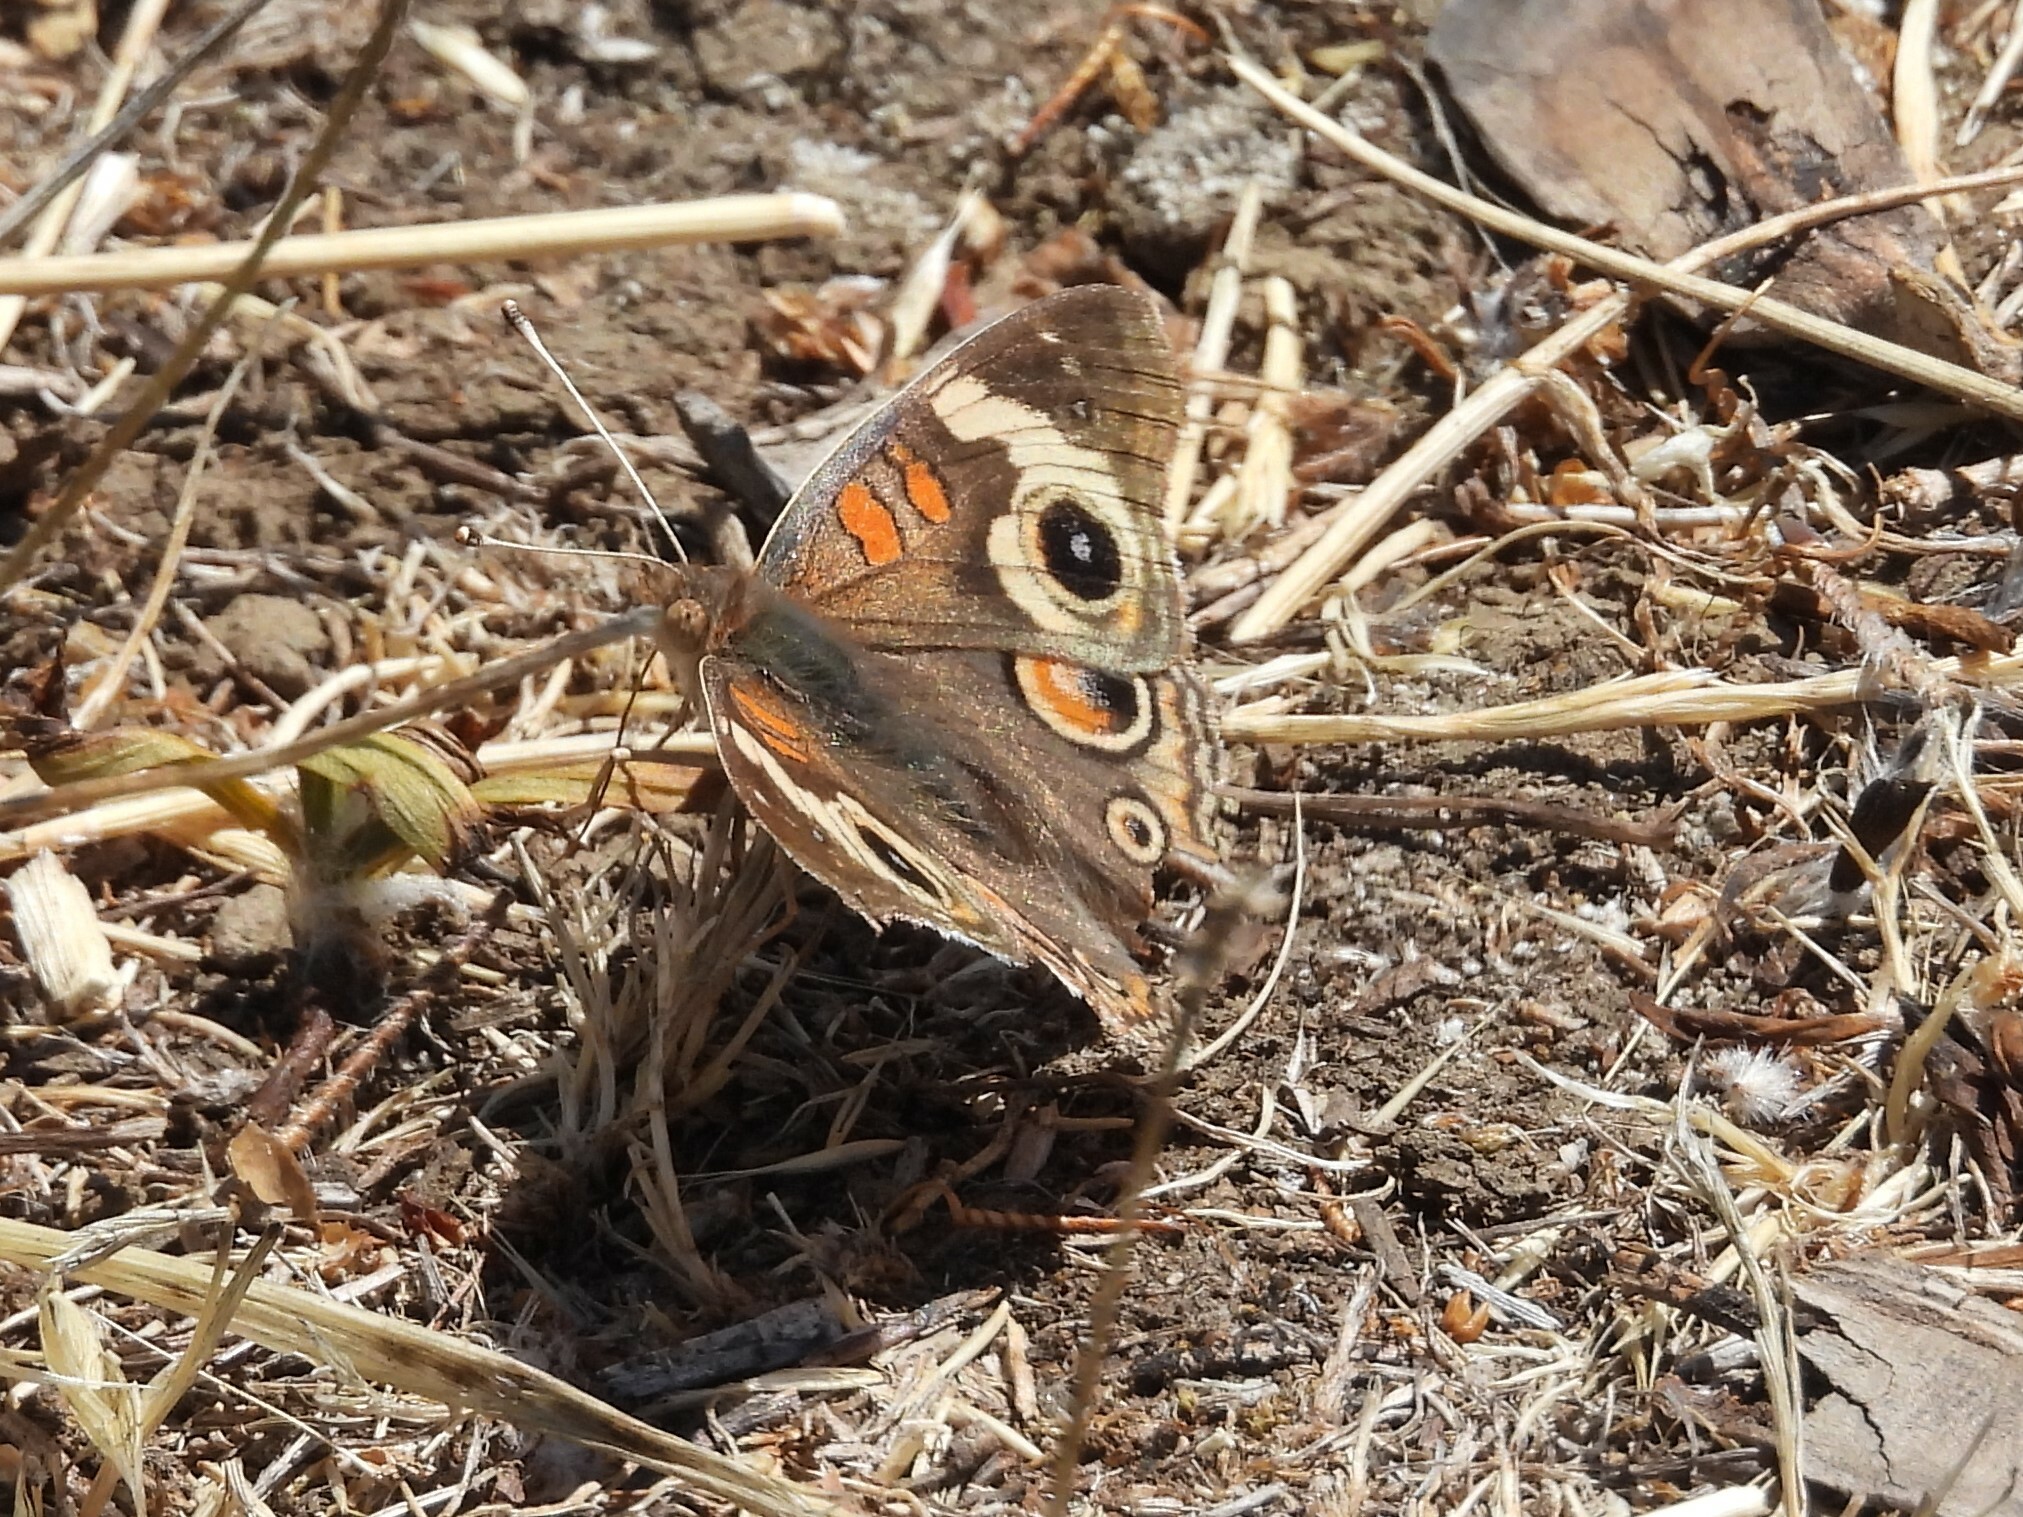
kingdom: Animalia
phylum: Arthropoda
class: Insecta
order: Lepidoptera
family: Nymphalidae
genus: Junonia
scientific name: Junonia grisea
